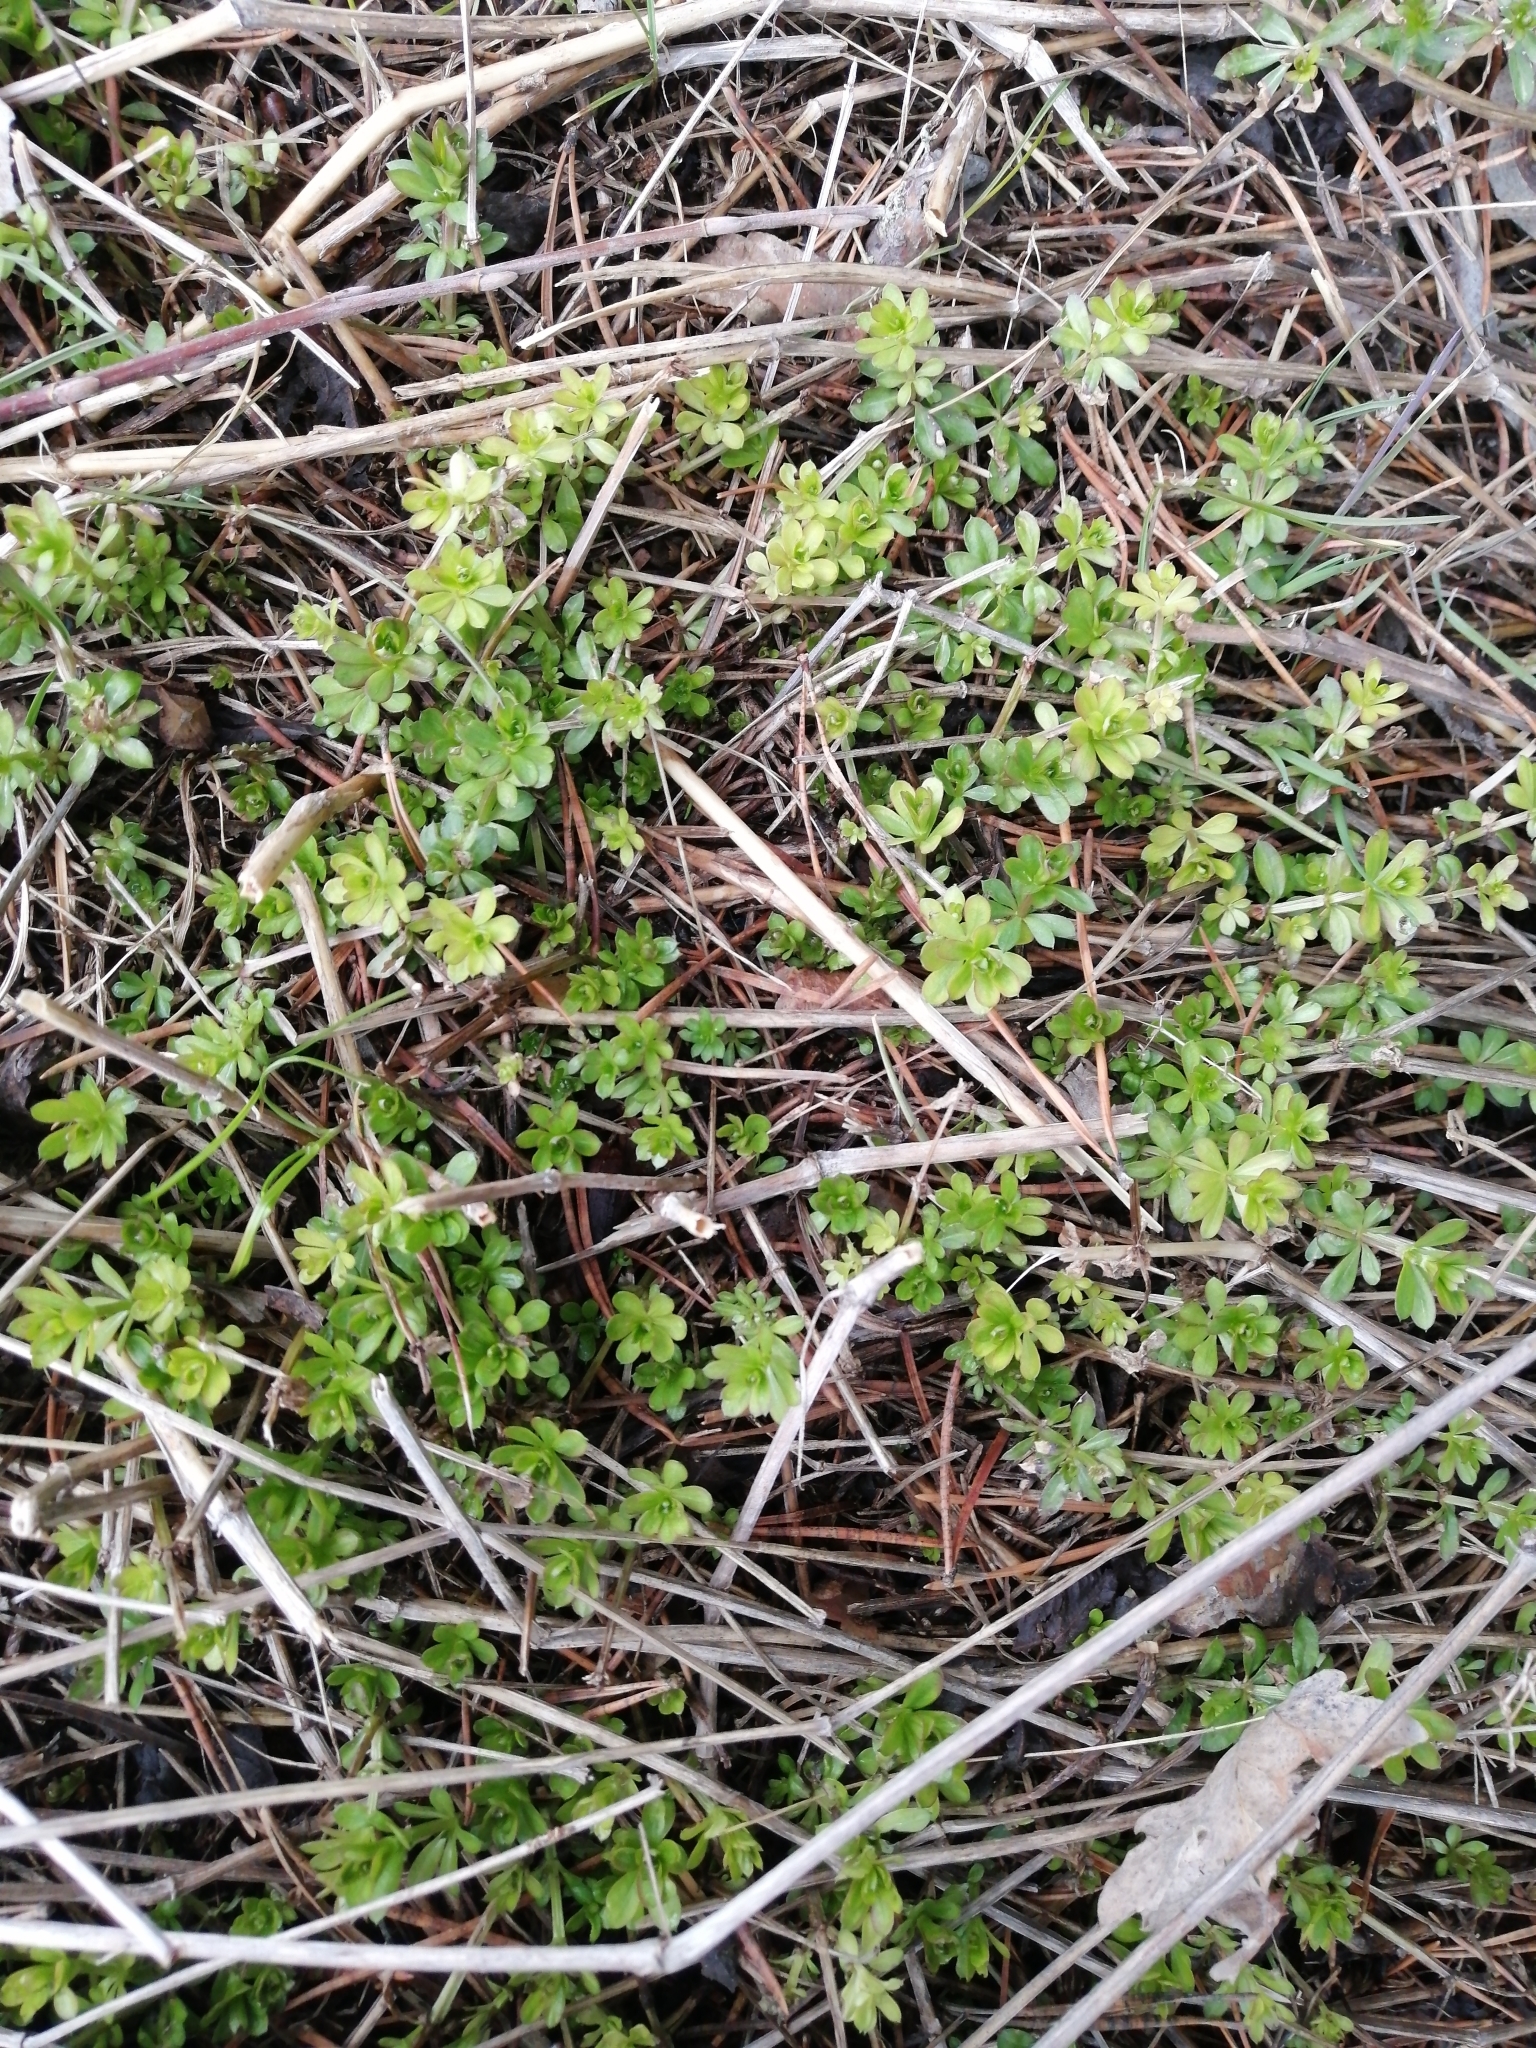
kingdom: Plantae
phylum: Tracheophyta
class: Magnoliopsida
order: Gentianales
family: Rubiaceae
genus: Galium
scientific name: Galium mollugo
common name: Hedge bedstraw
